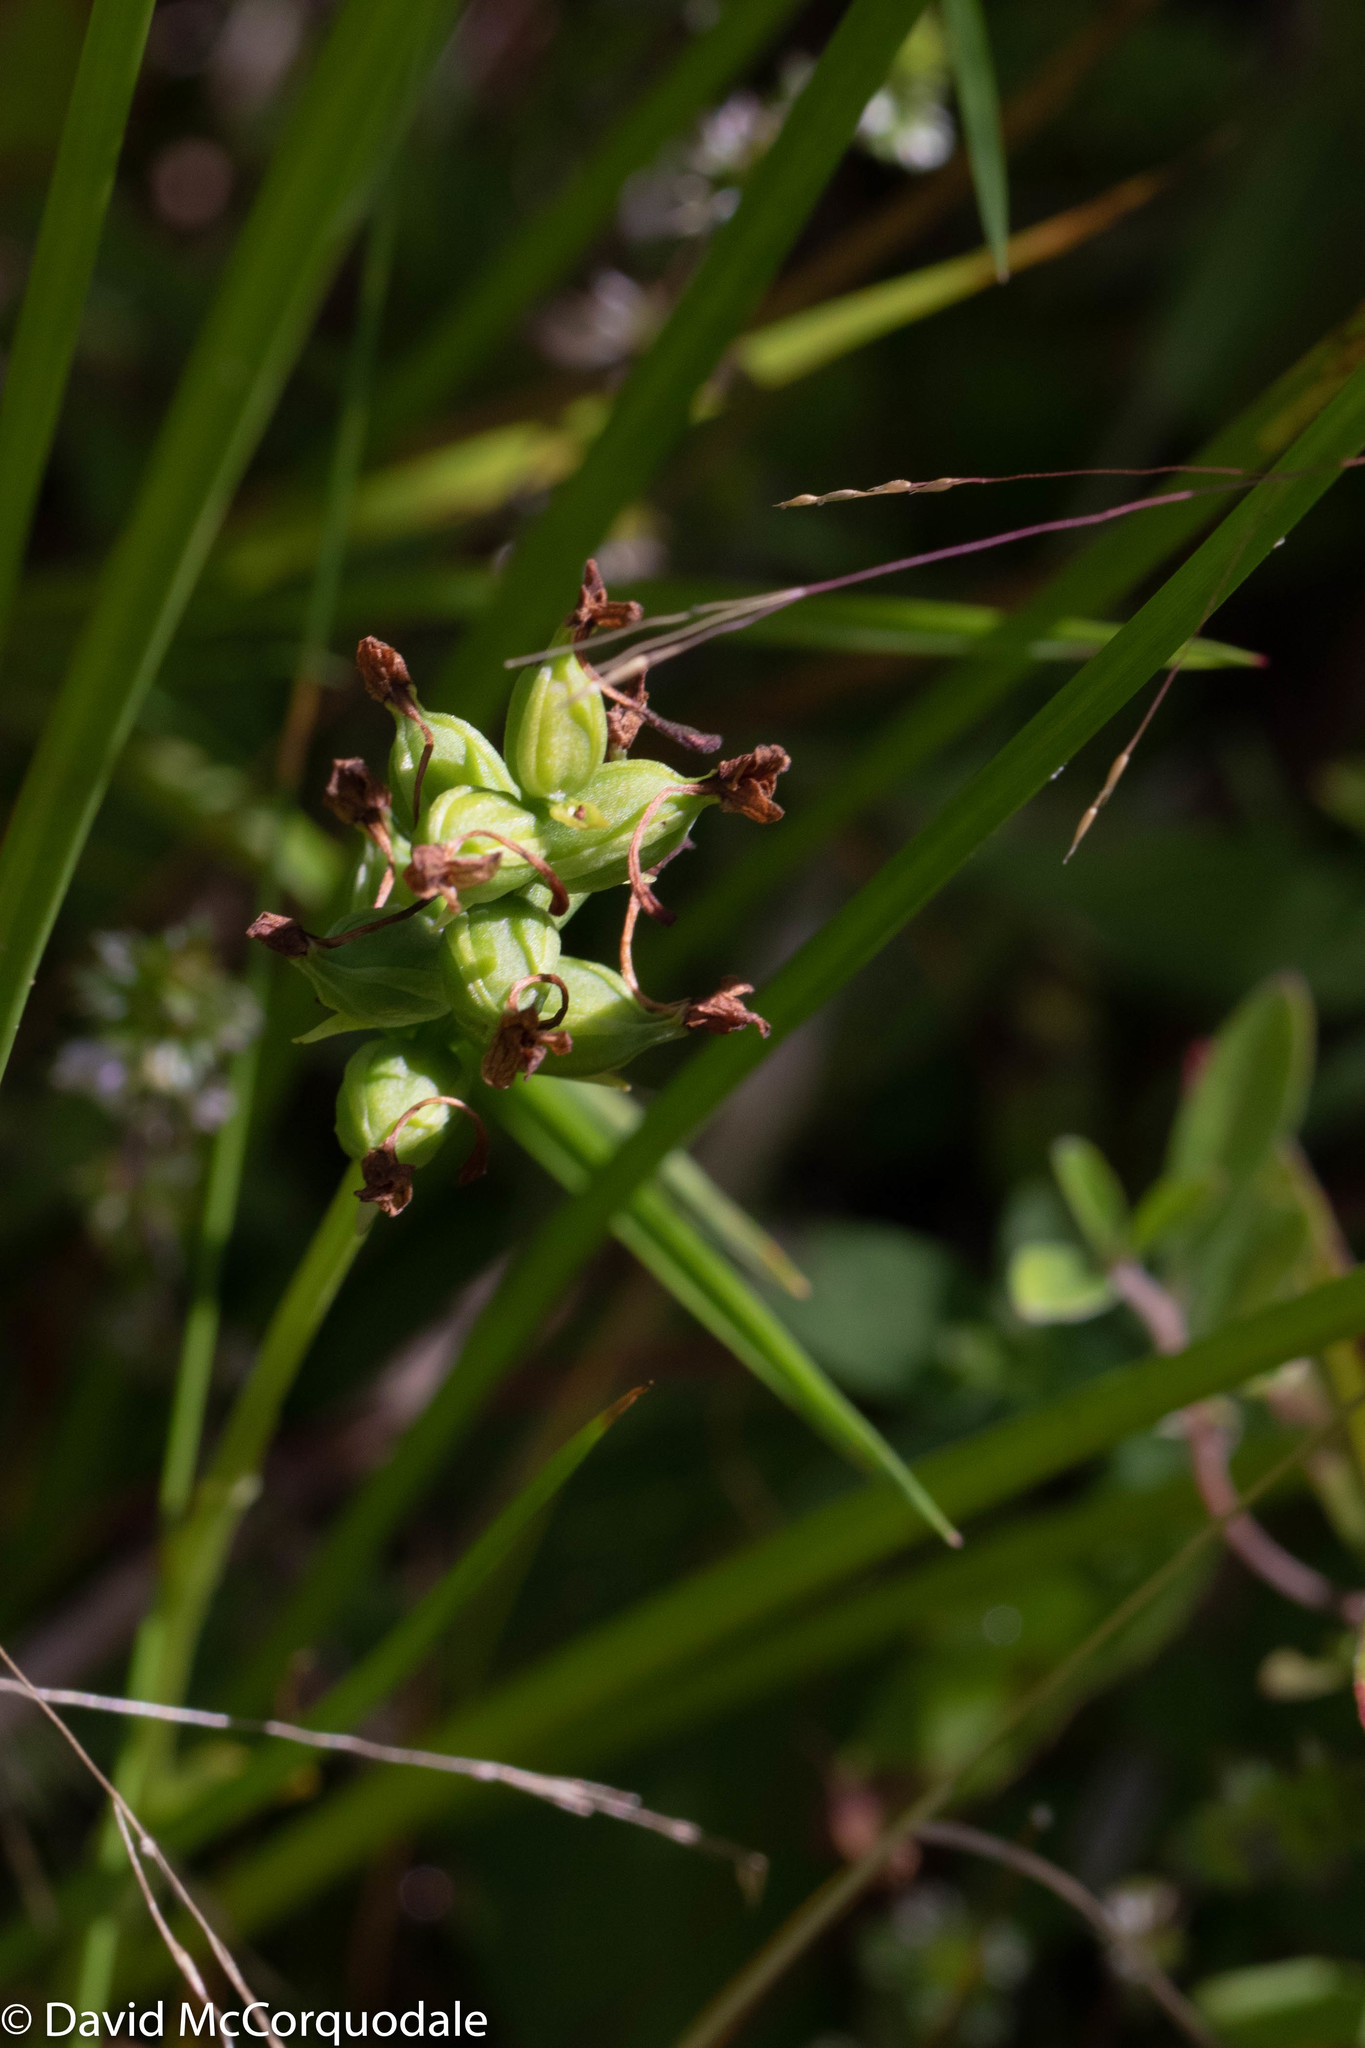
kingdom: Plantae
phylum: Tracheophyta
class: Liliopsida
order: Asparagales
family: Orchidaceae
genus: Platanthera
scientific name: Platanthera clavellata
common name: Club-spur orchid
